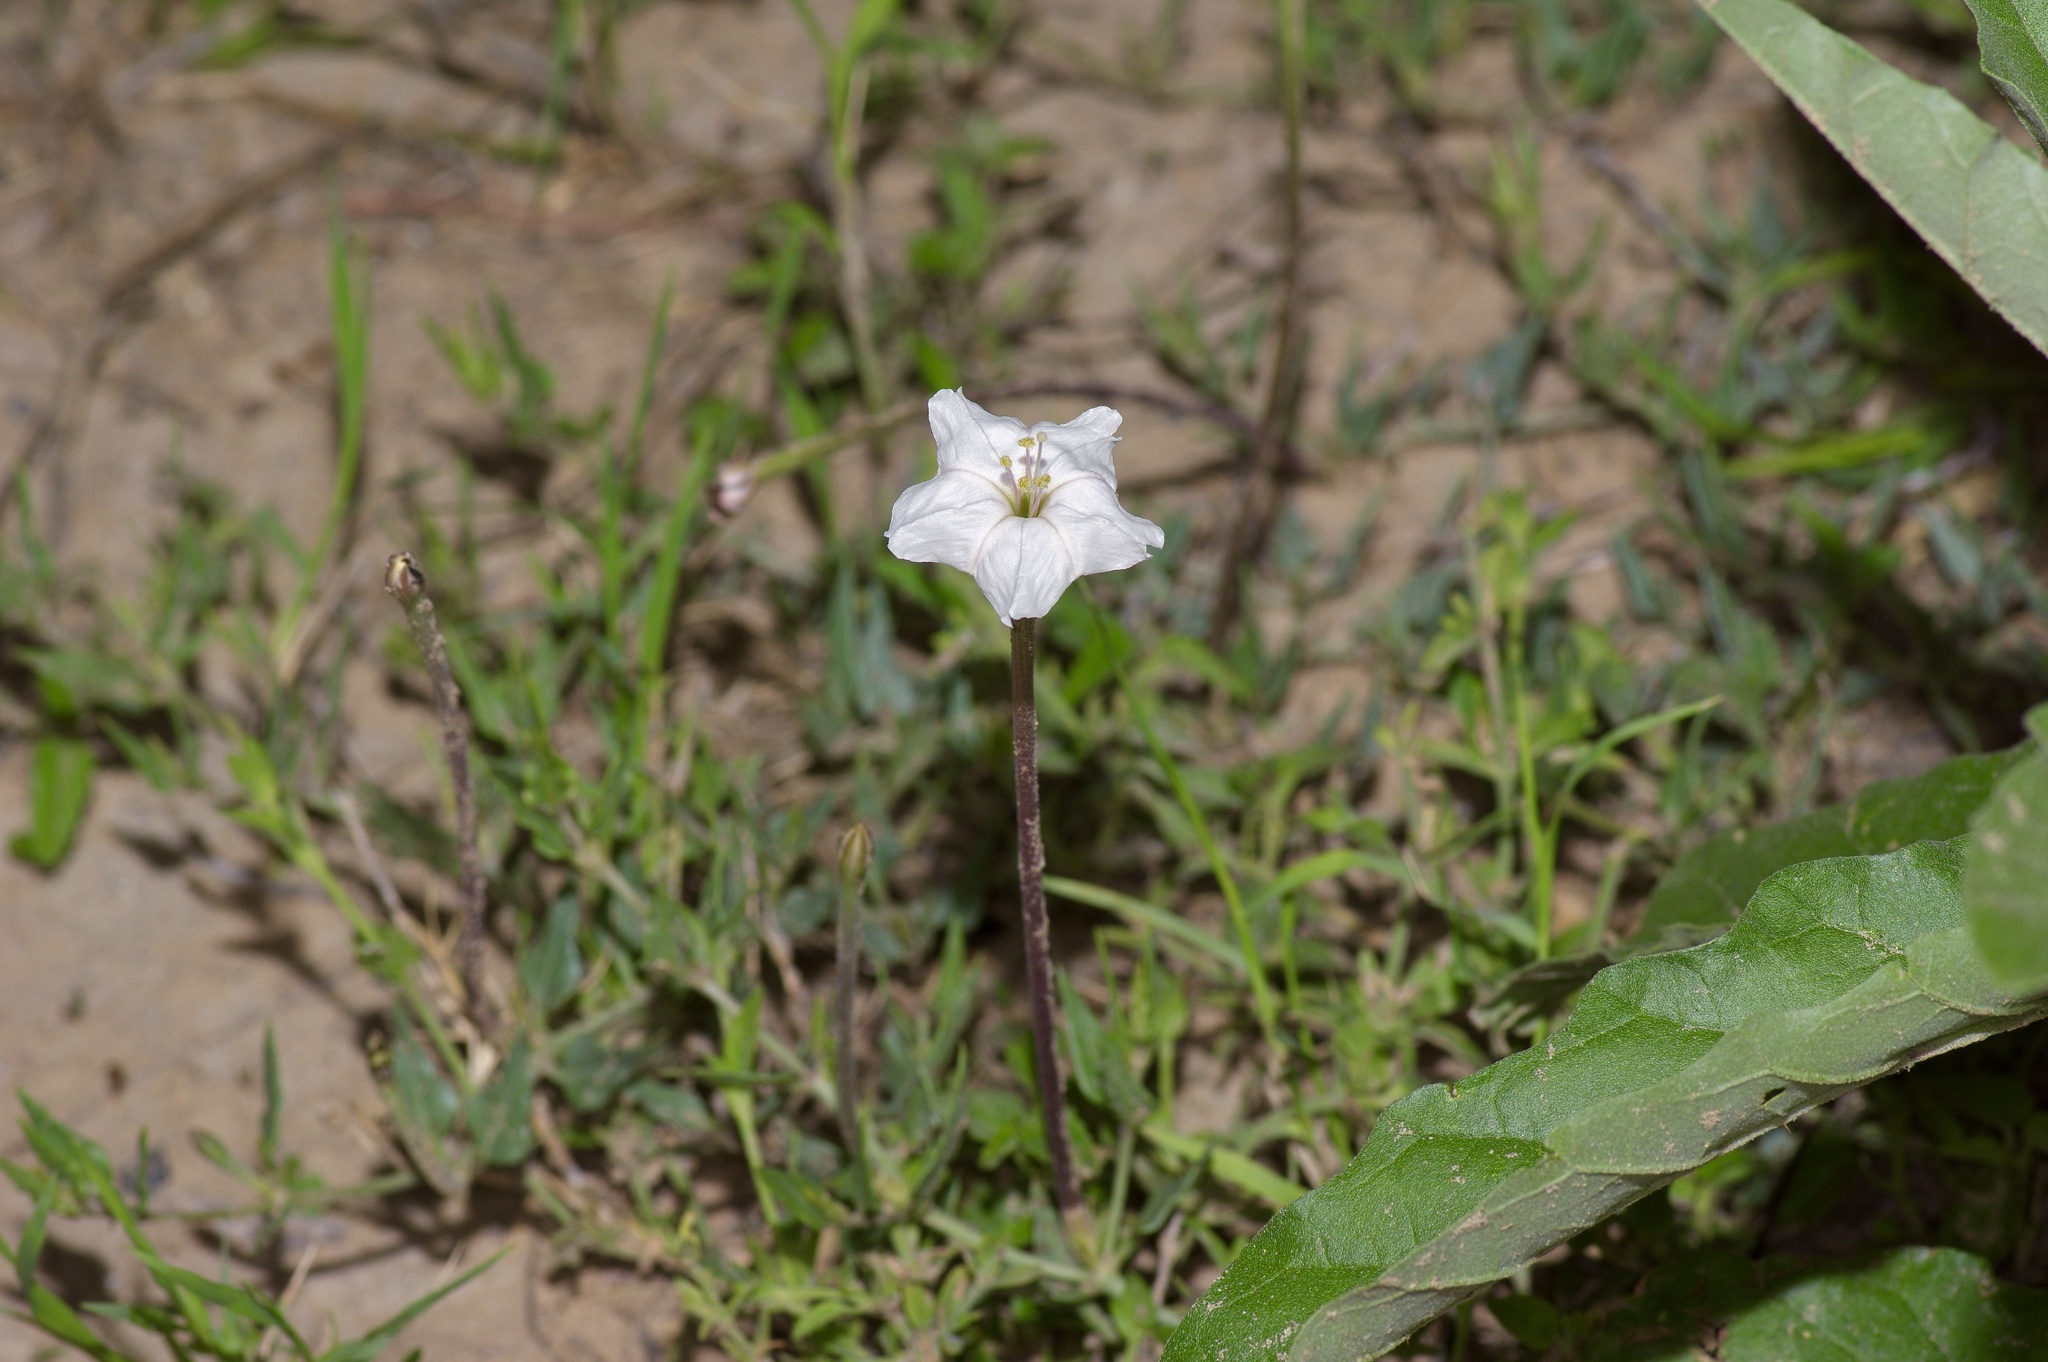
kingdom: Plantae
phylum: Tracheophyta
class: Magnoliopsida
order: Caryophyllales
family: Nyctaginaceae
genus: Acleisanthes
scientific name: Acleisanthes longiflora
